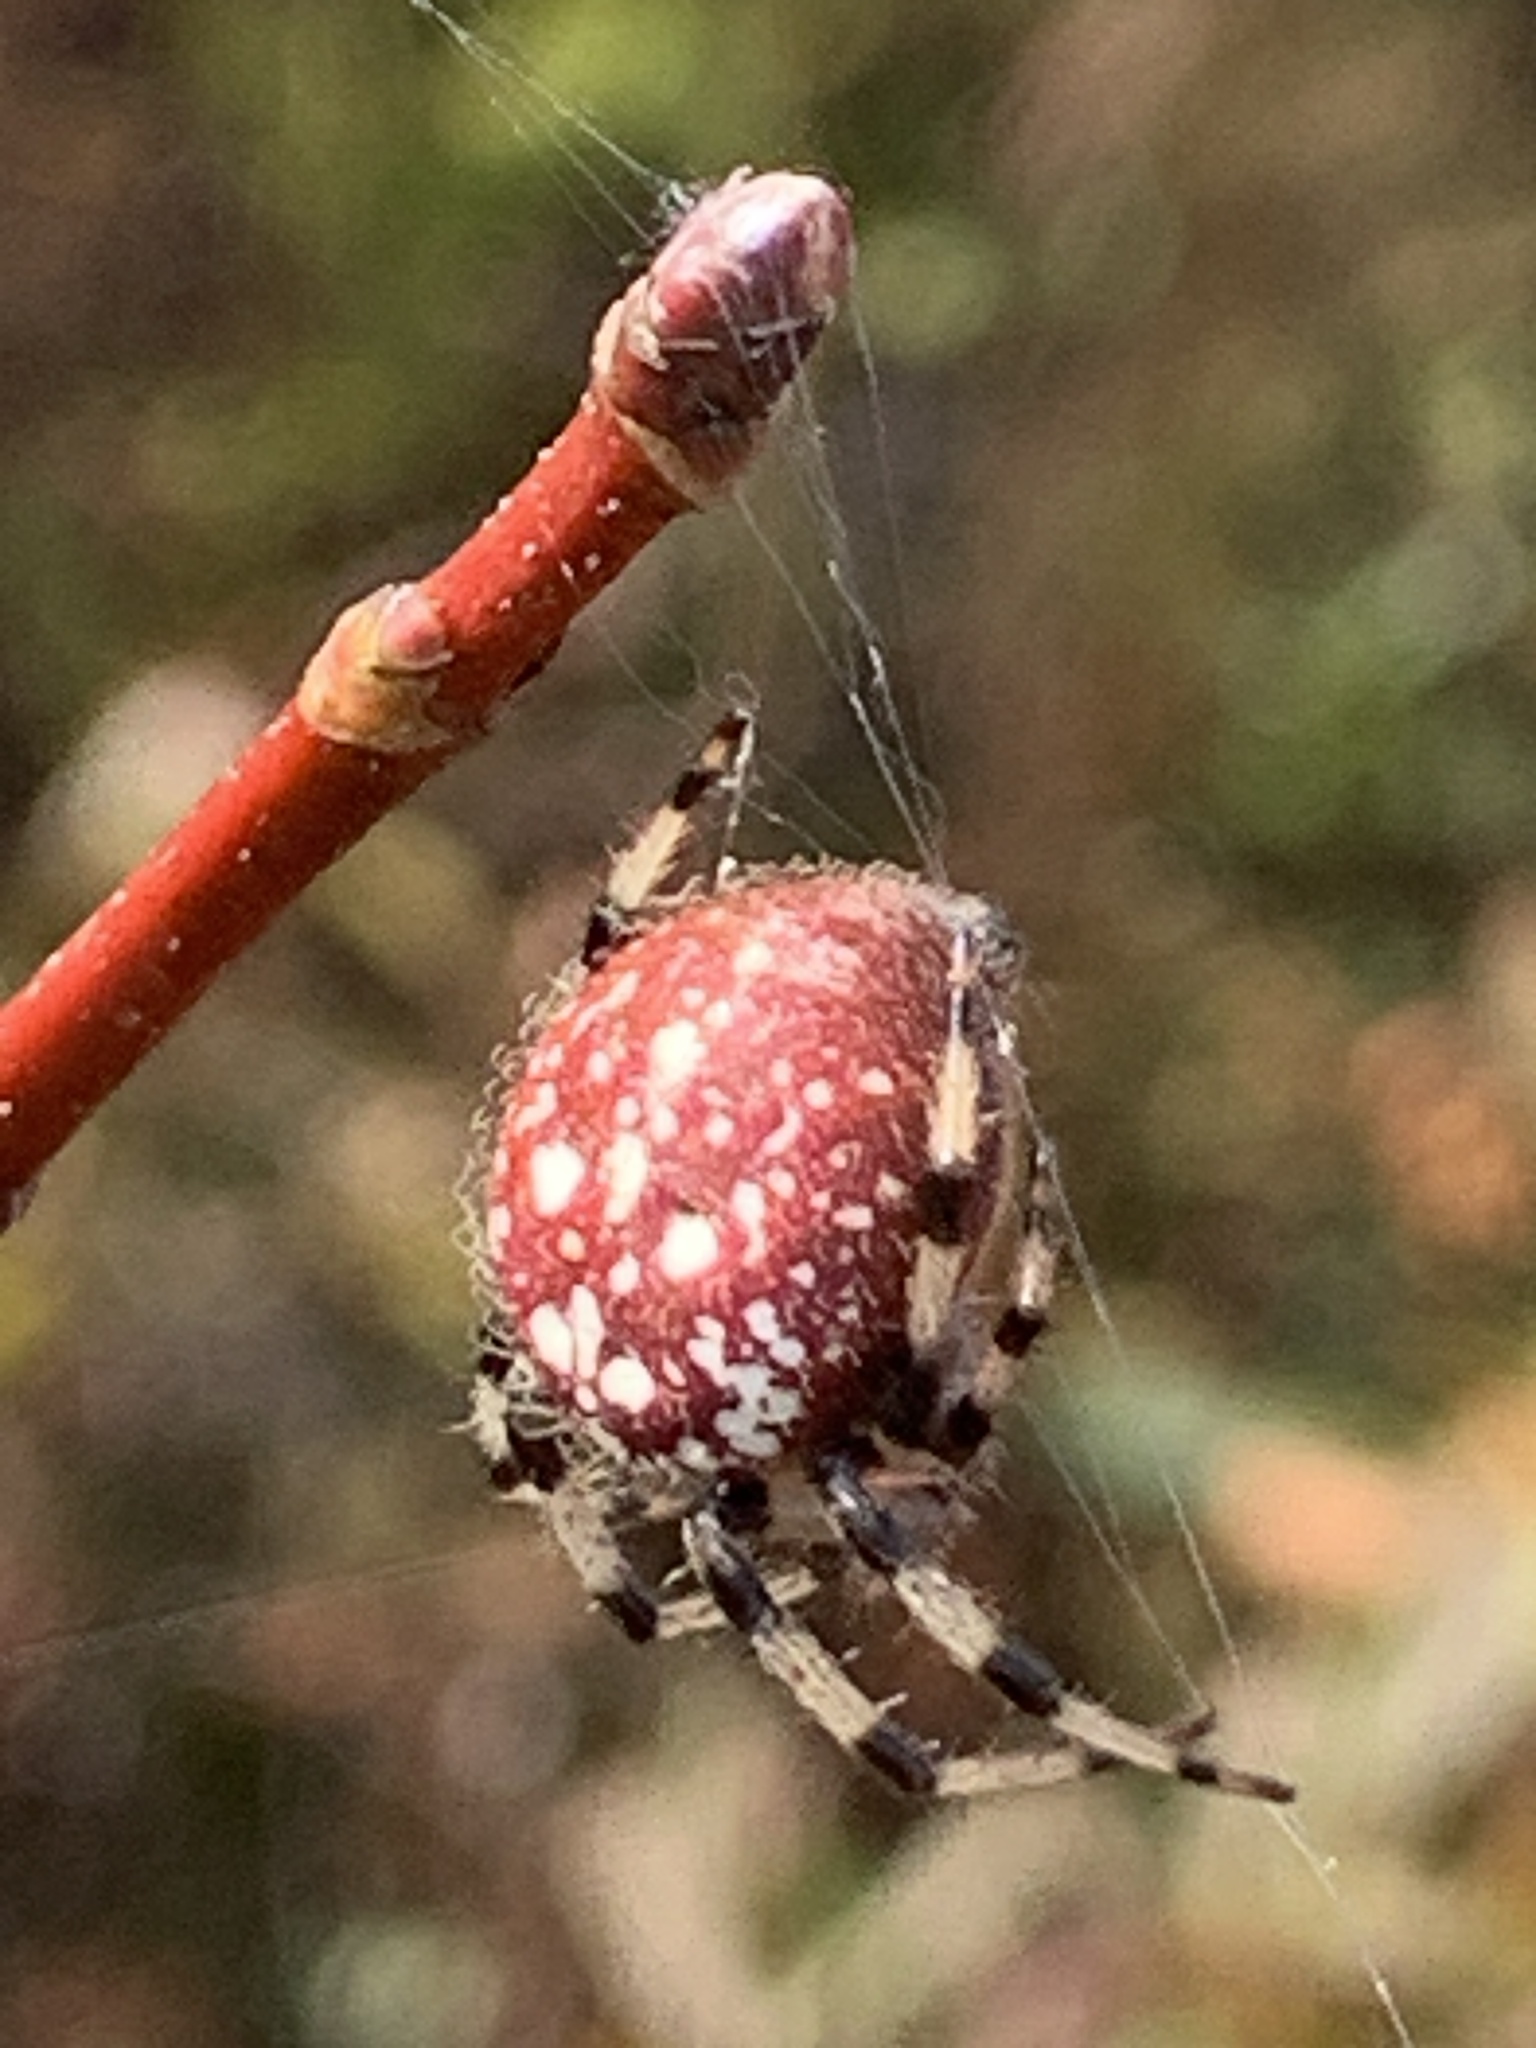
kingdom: Animalia
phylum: Arthropoda
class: Arachnida
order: Araneae
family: Araneidae
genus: Araneus
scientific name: Araneus trifolium
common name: Shamrock orbweaver
